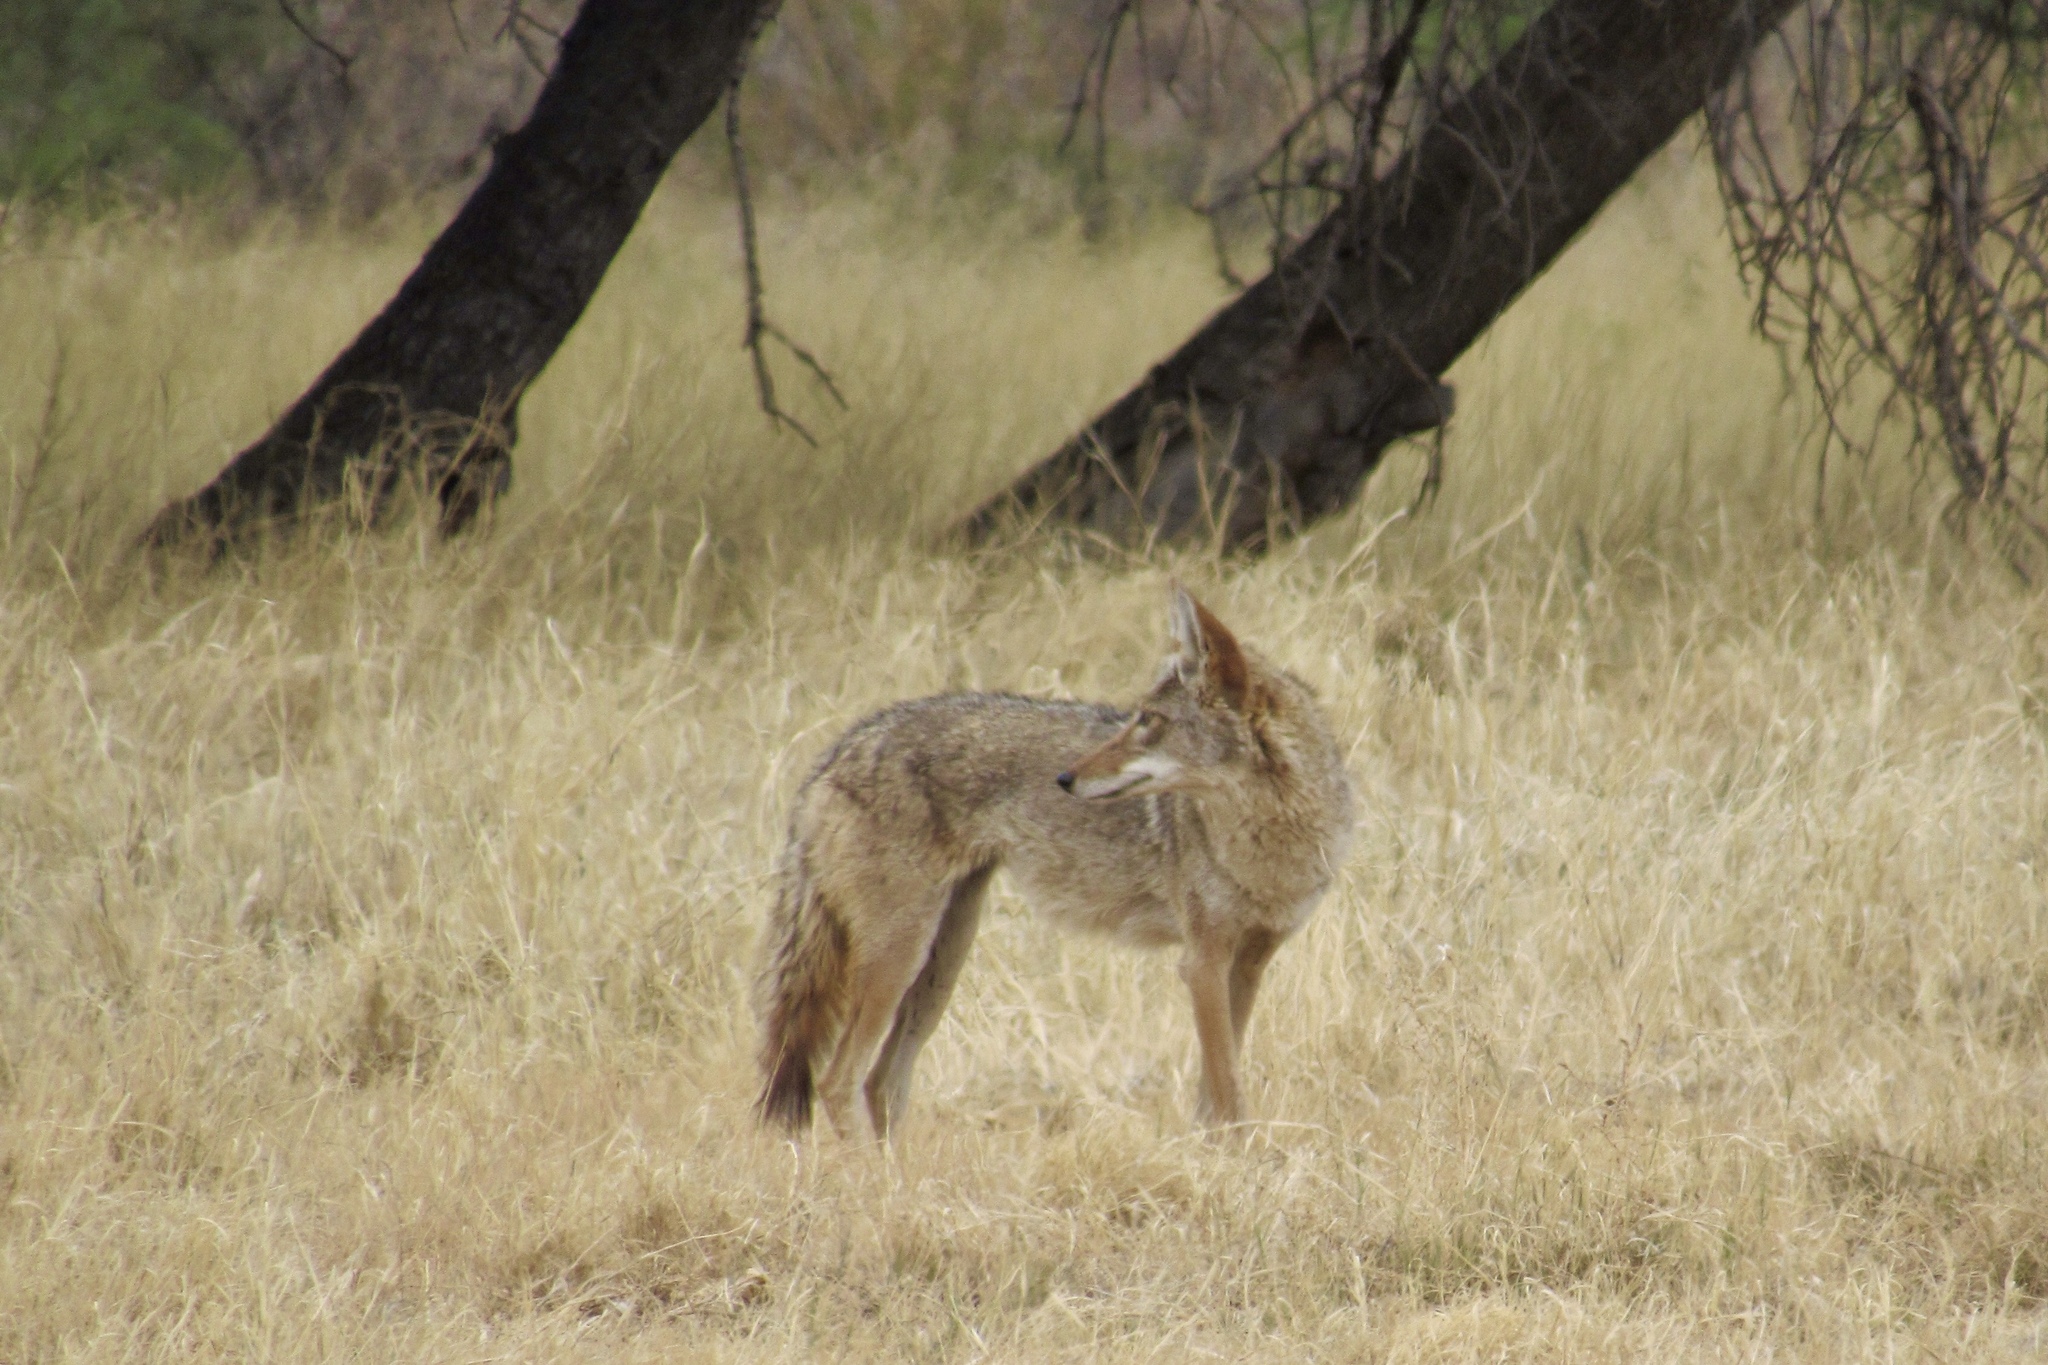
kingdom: Animalia
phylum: Chordata
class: Mammalia
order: Carnivora
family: Canidae
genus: Canis
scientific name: Canis latrans
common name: Coyote
